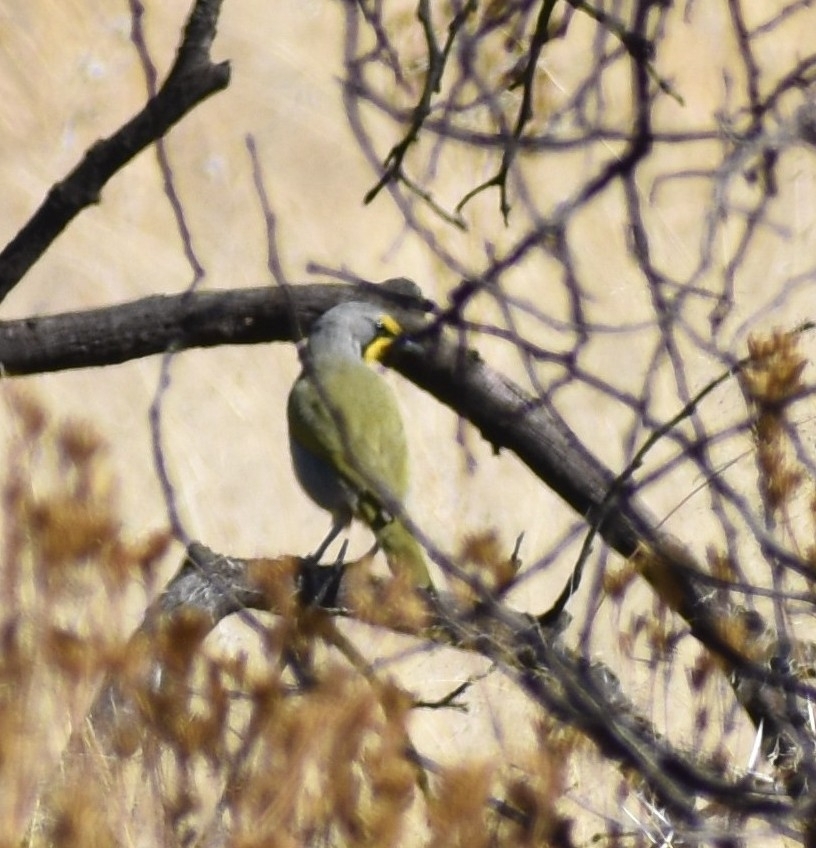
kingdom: Animalia
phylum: Chordata
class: Aves
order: Passeriformes
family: Malaconotidae
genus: Telophorus
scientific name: Telophorus zeylonus
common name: Bokmakierie
